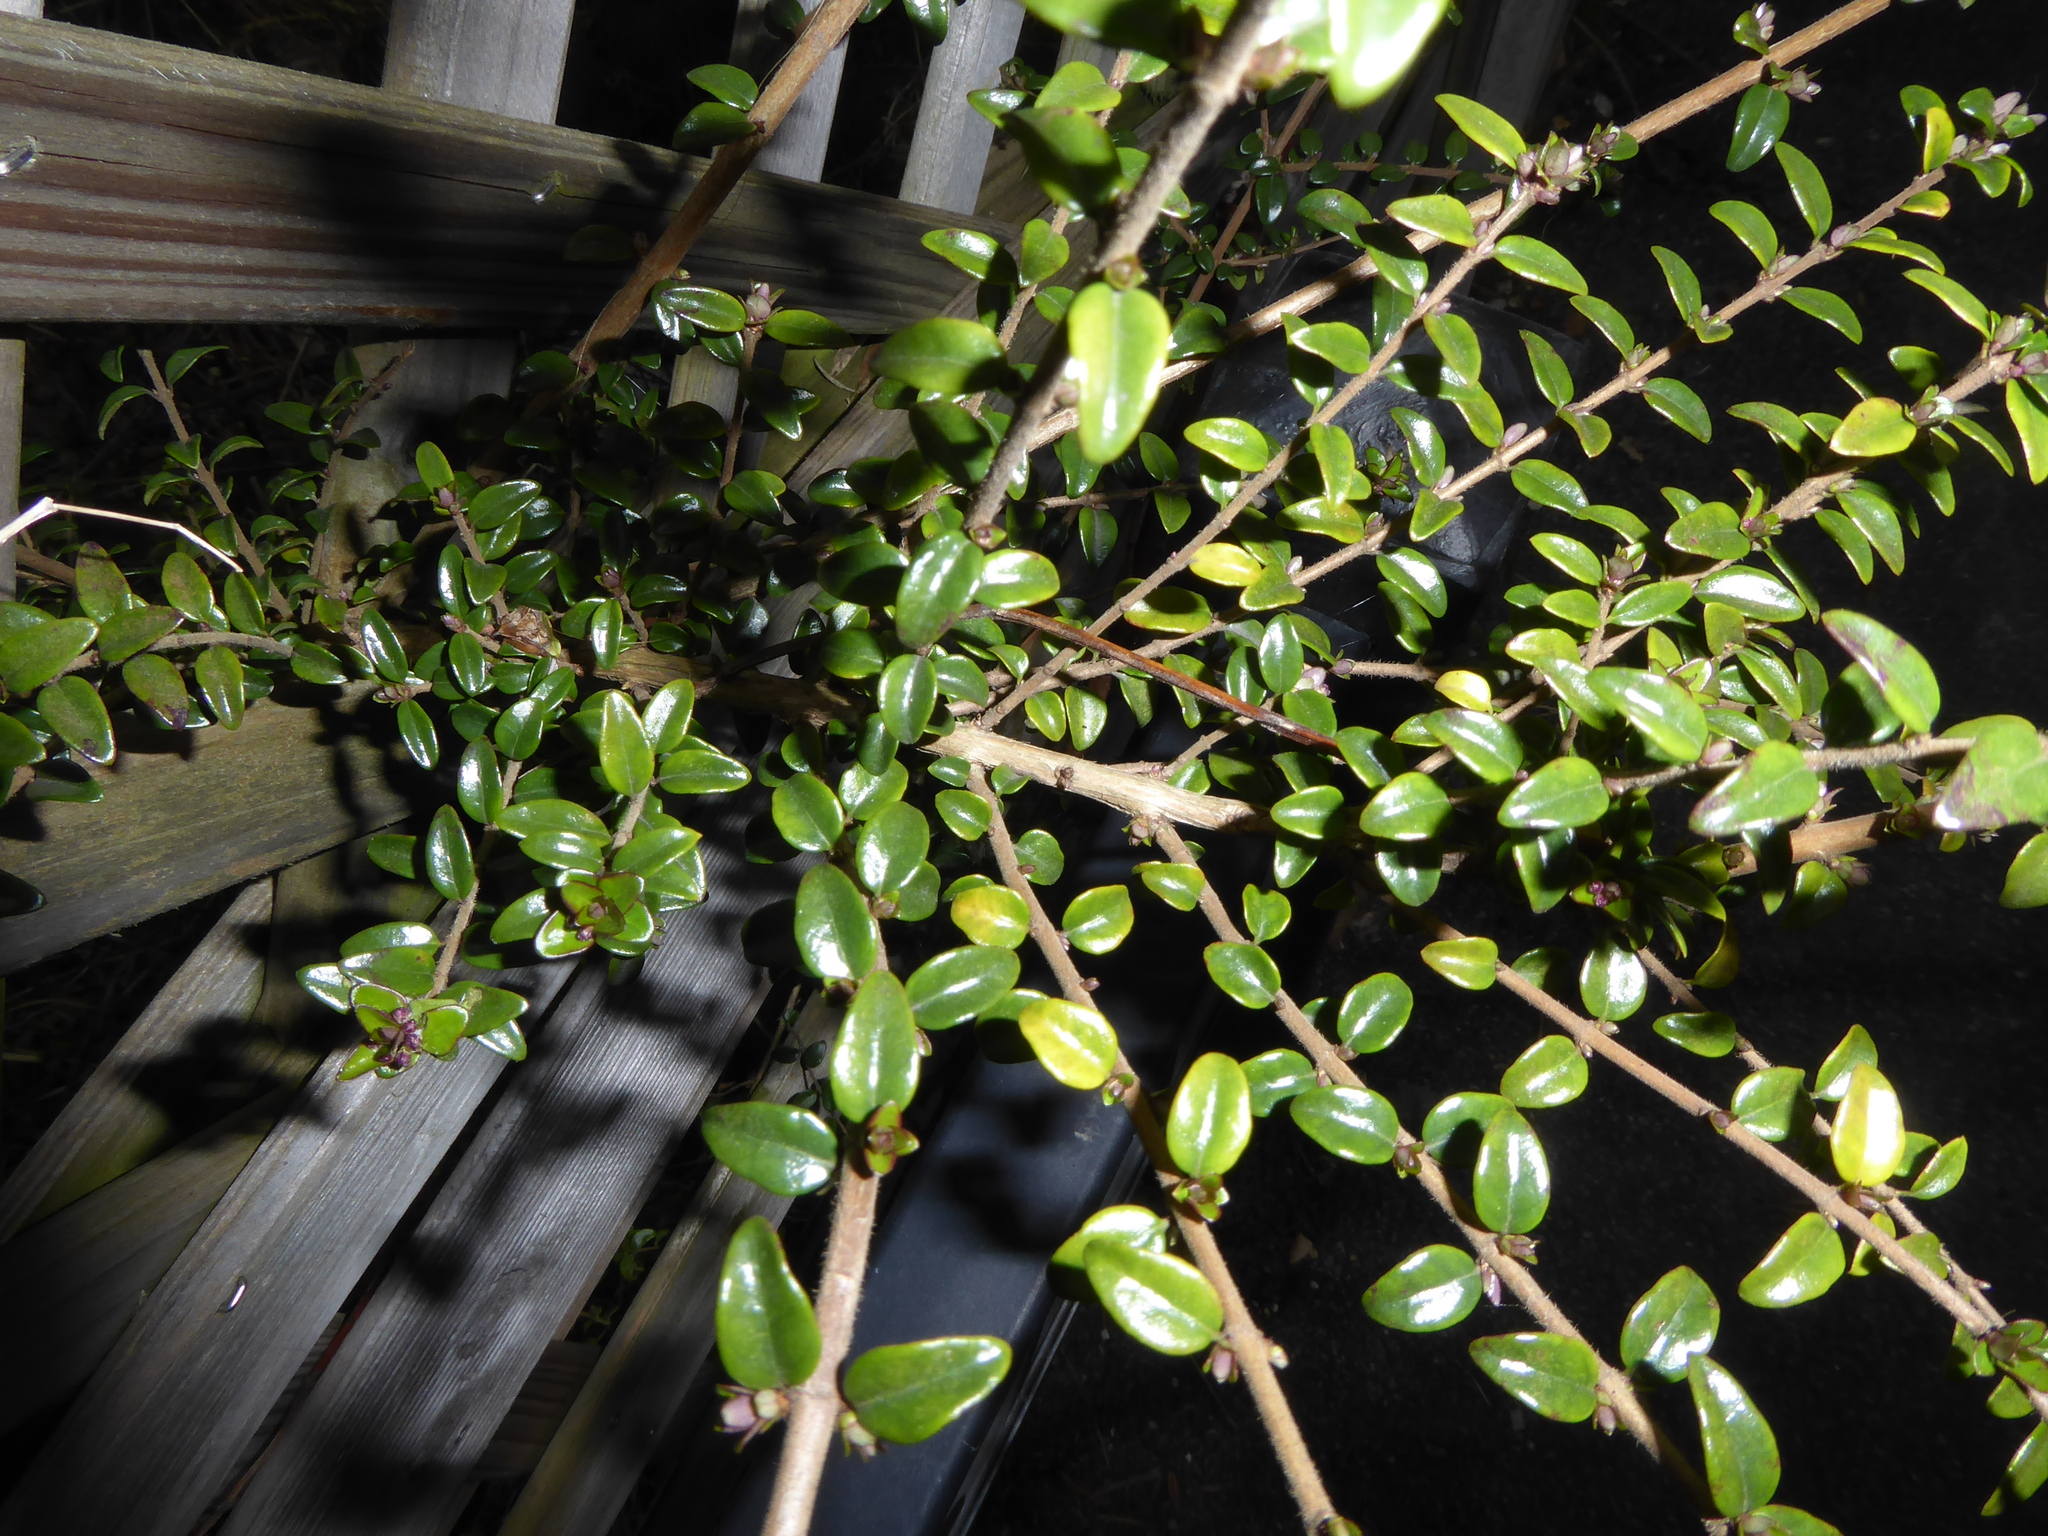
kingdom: Plantae
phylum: Tracheophyta
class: Magnoliopsida
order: Dipsacales
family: Caprifoliaceae
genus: Lonicera
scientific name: Lonicera ligustrina
